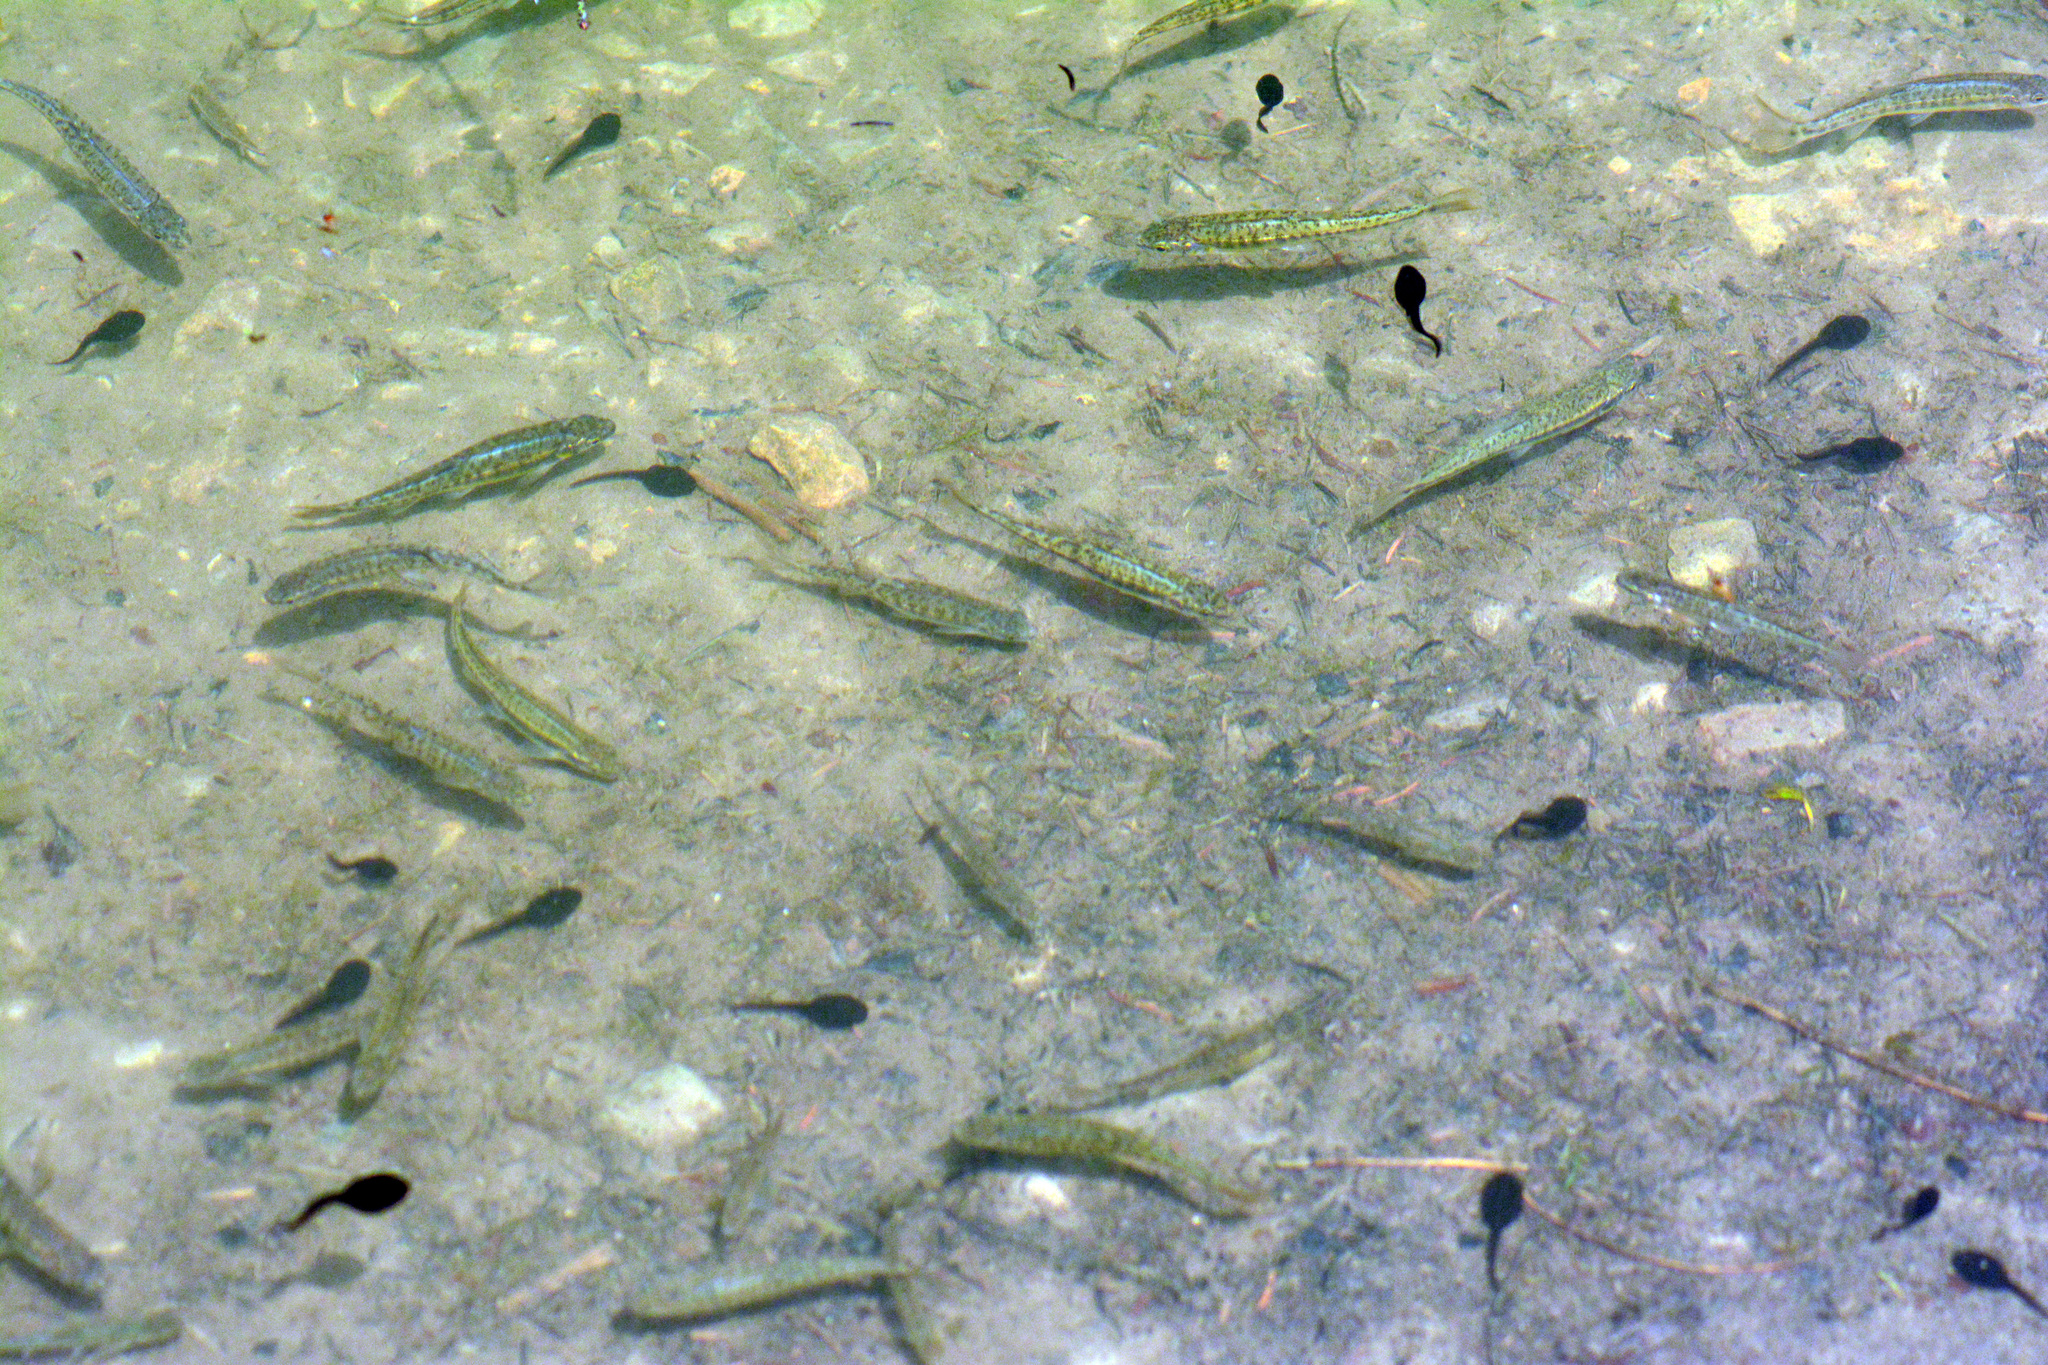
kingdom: Animalia
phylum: Chordata
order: Cypriniformes
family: Cyprinidae
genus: Phoxinus
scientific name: Phoxinus phoxinus
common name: Minnow
